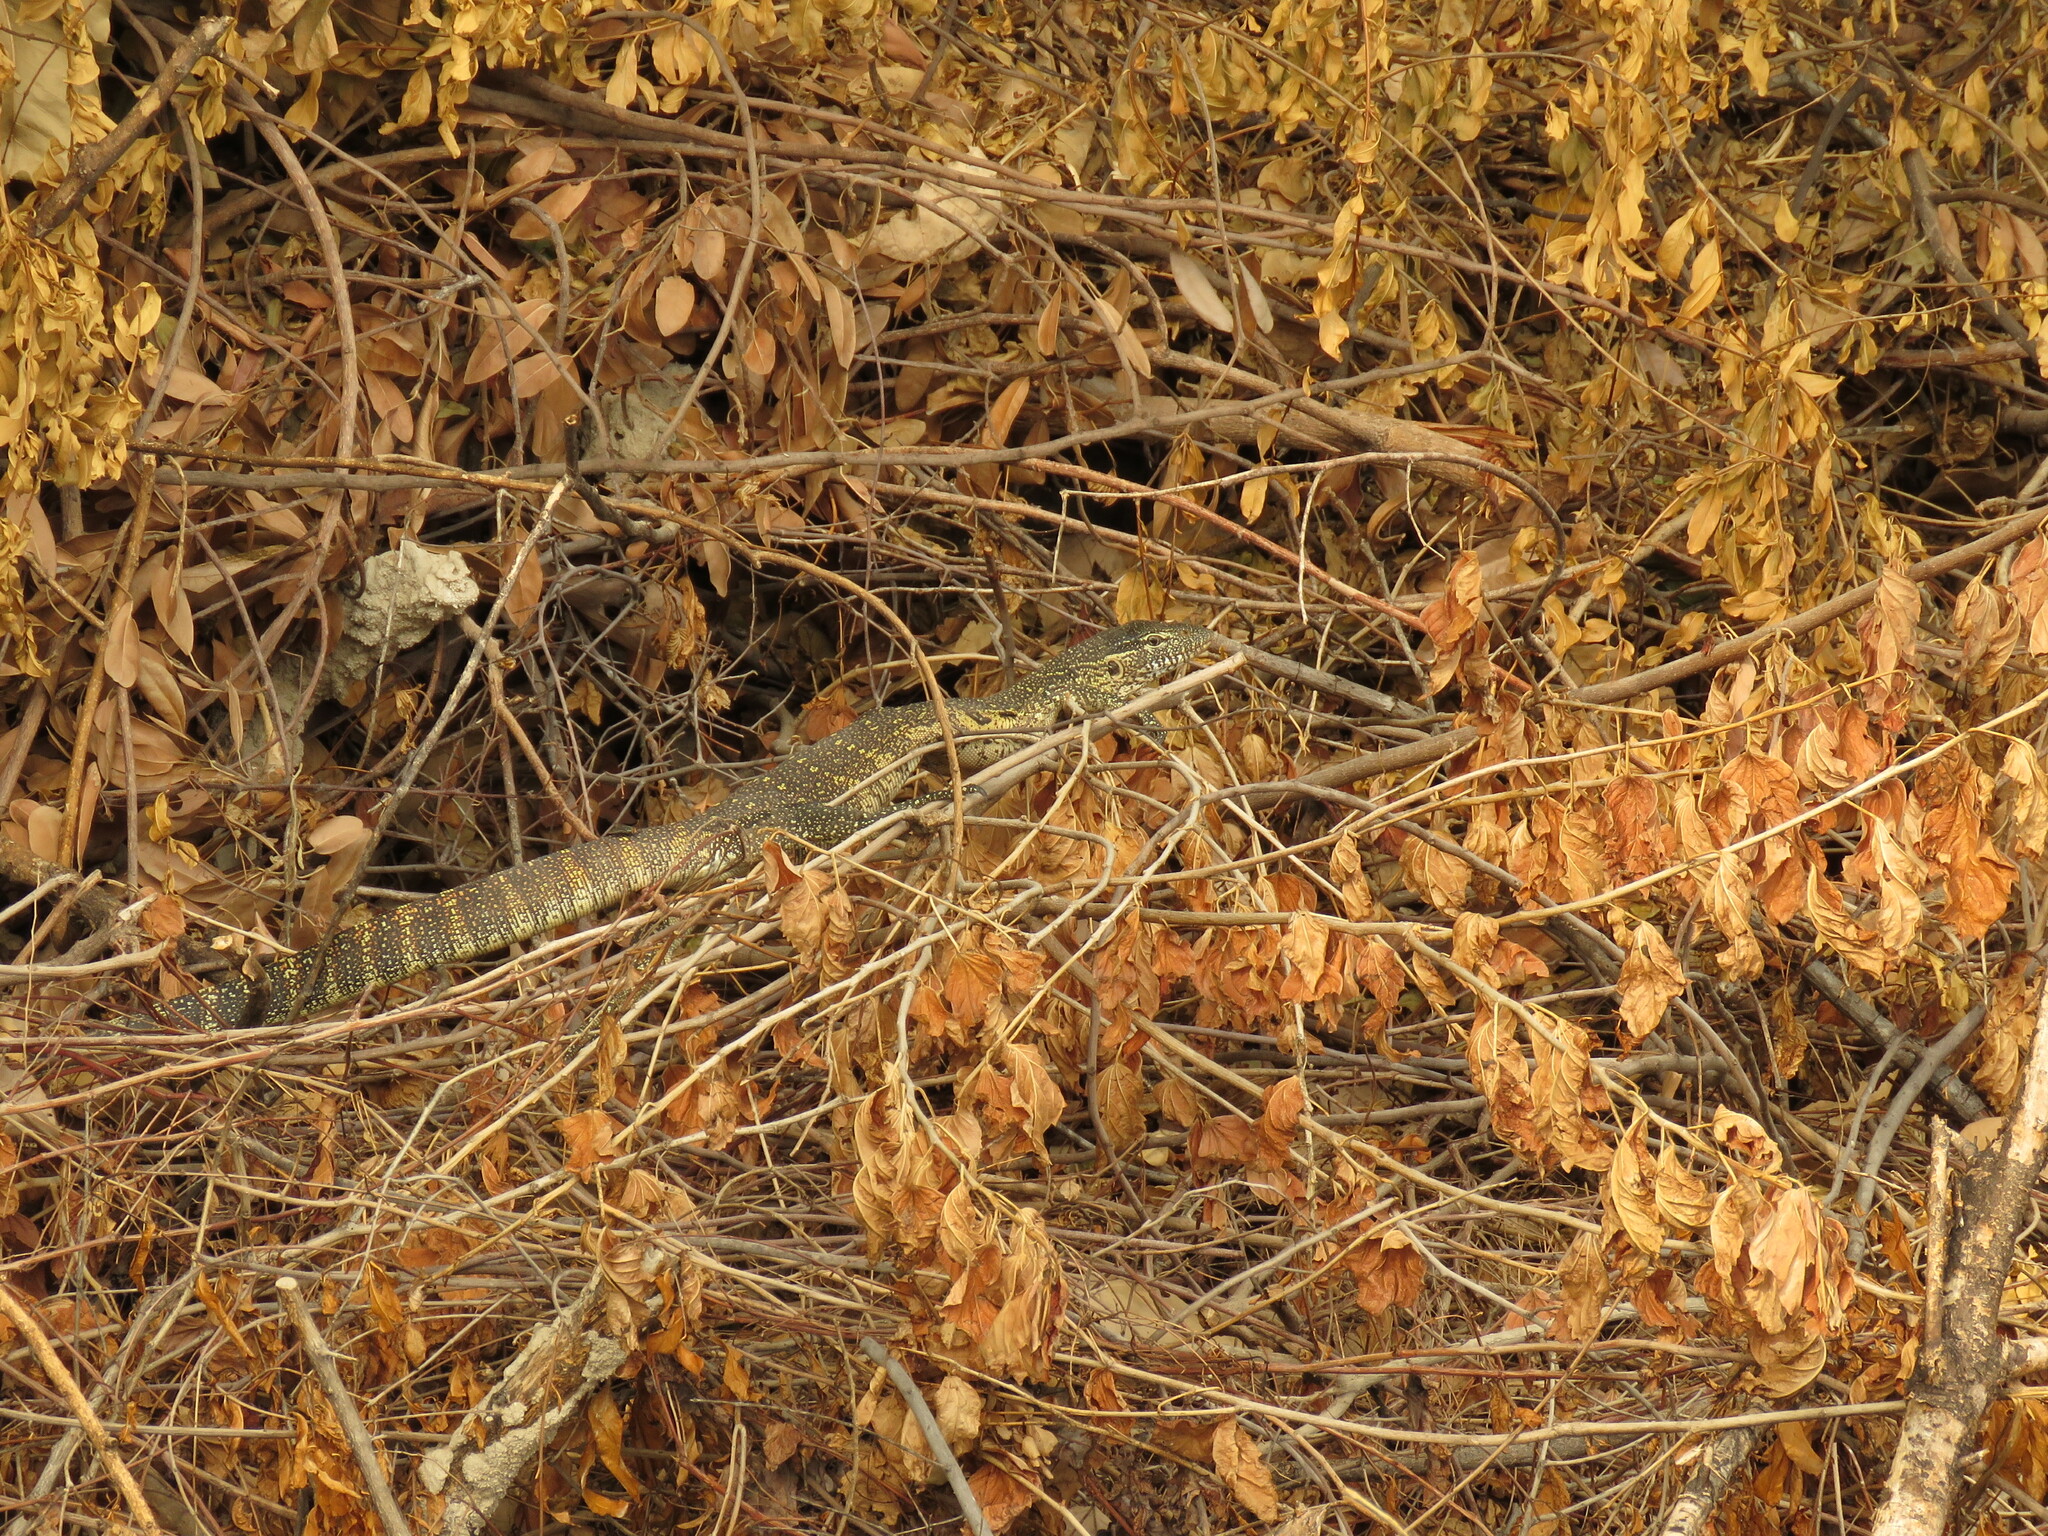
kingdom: Animalia
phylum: Chordata
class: Squamata
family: Varanidae
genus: Varanus
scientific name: Varanus niloticus
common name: Nile monitor
